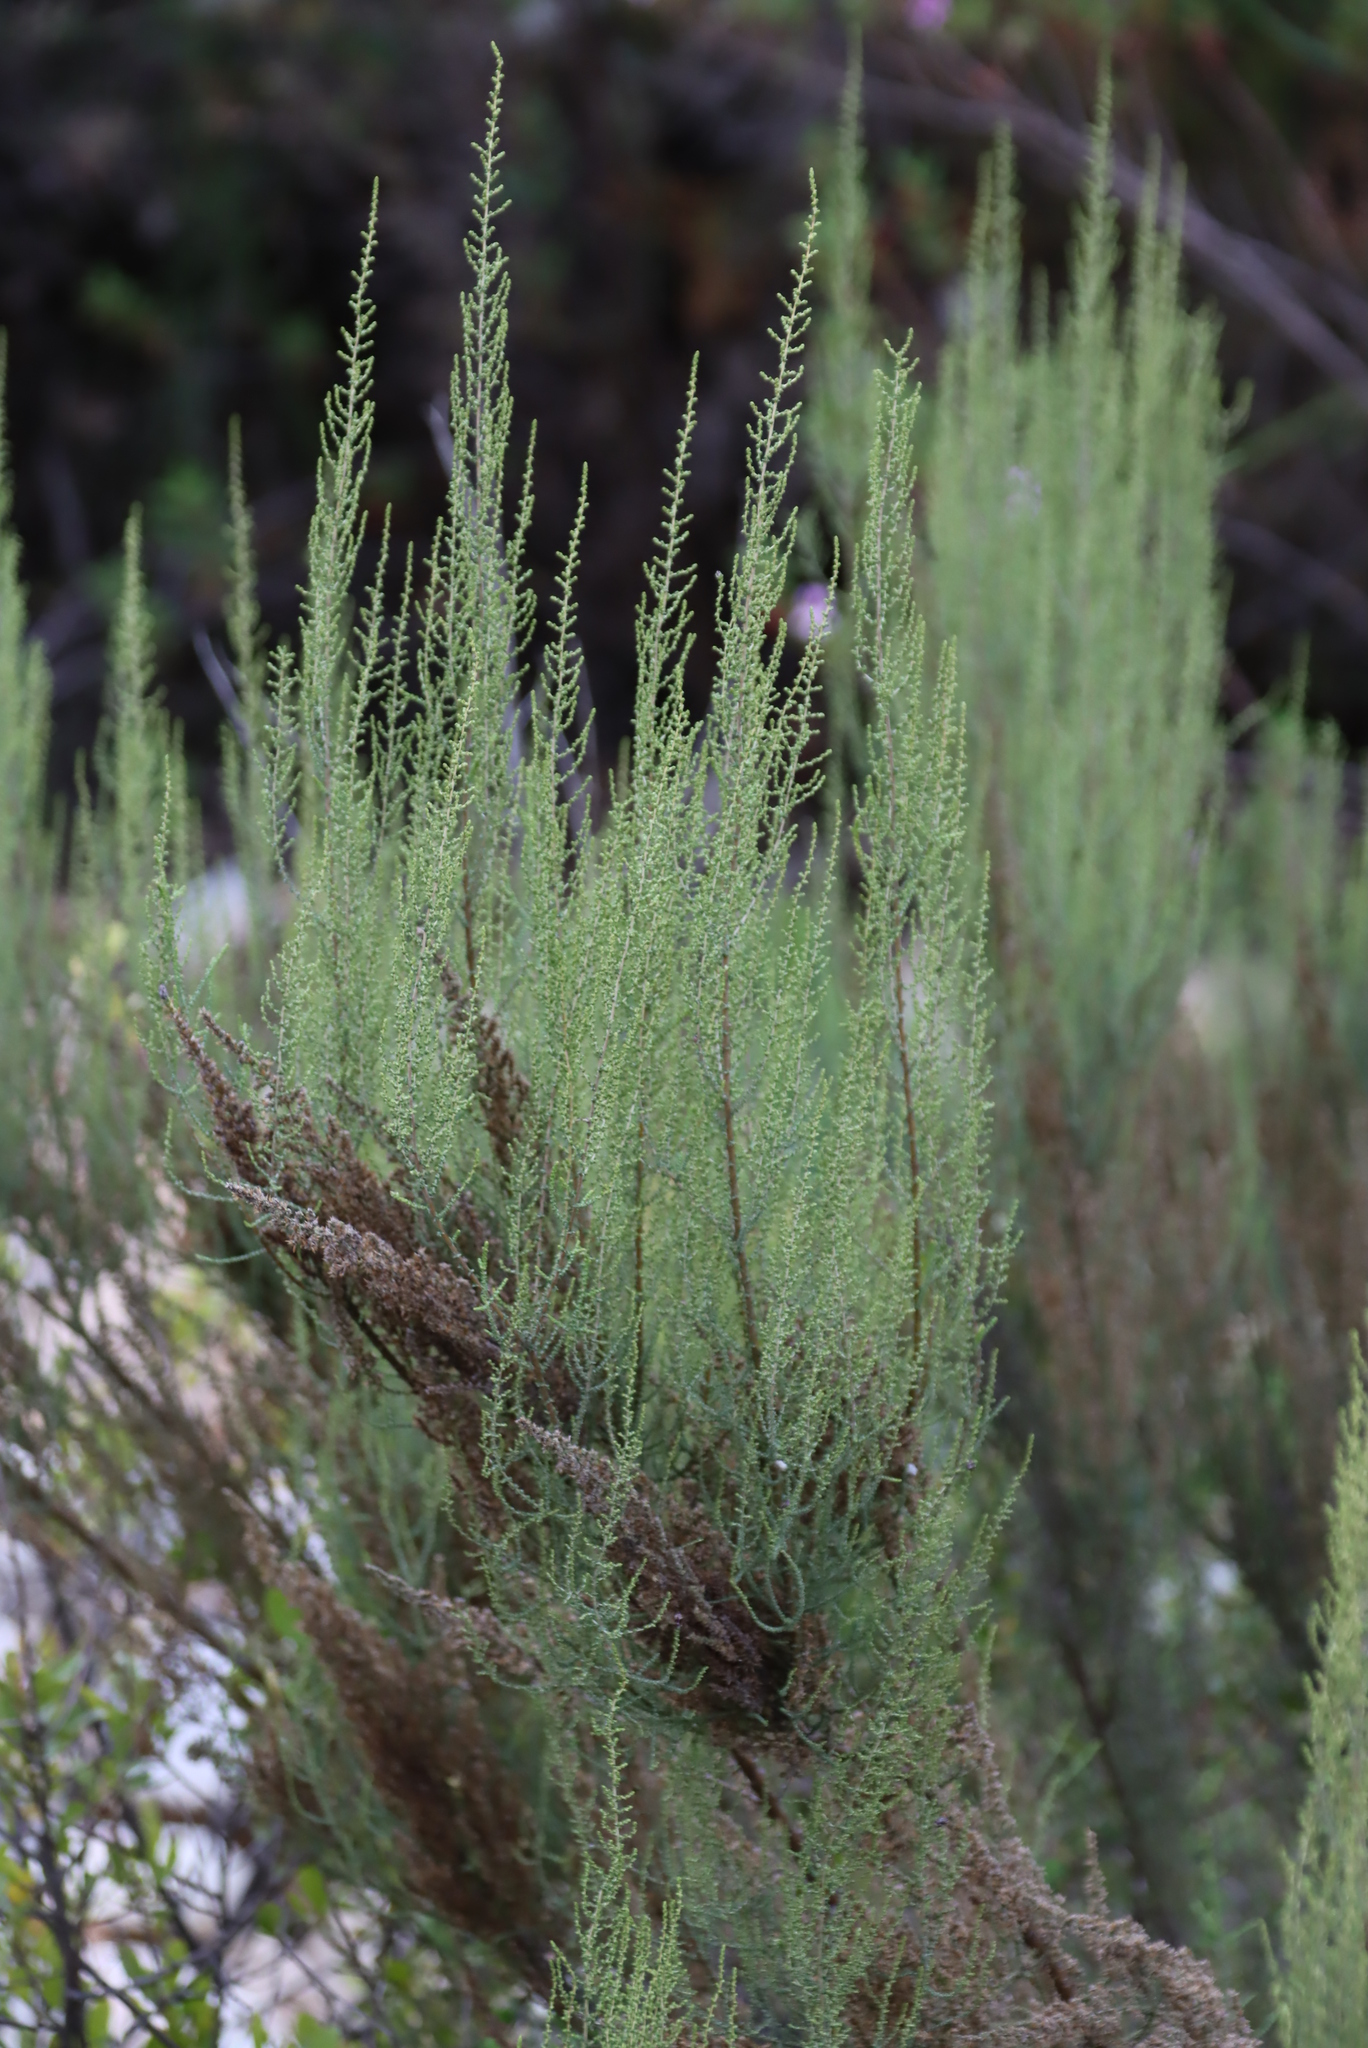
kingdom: Plantae
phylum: Tracheophyta
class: Magnoliopsida
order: Asterales
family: Asteraceae
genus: Dicerothamnus
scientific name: Dicerothamnus rhinocerotis
